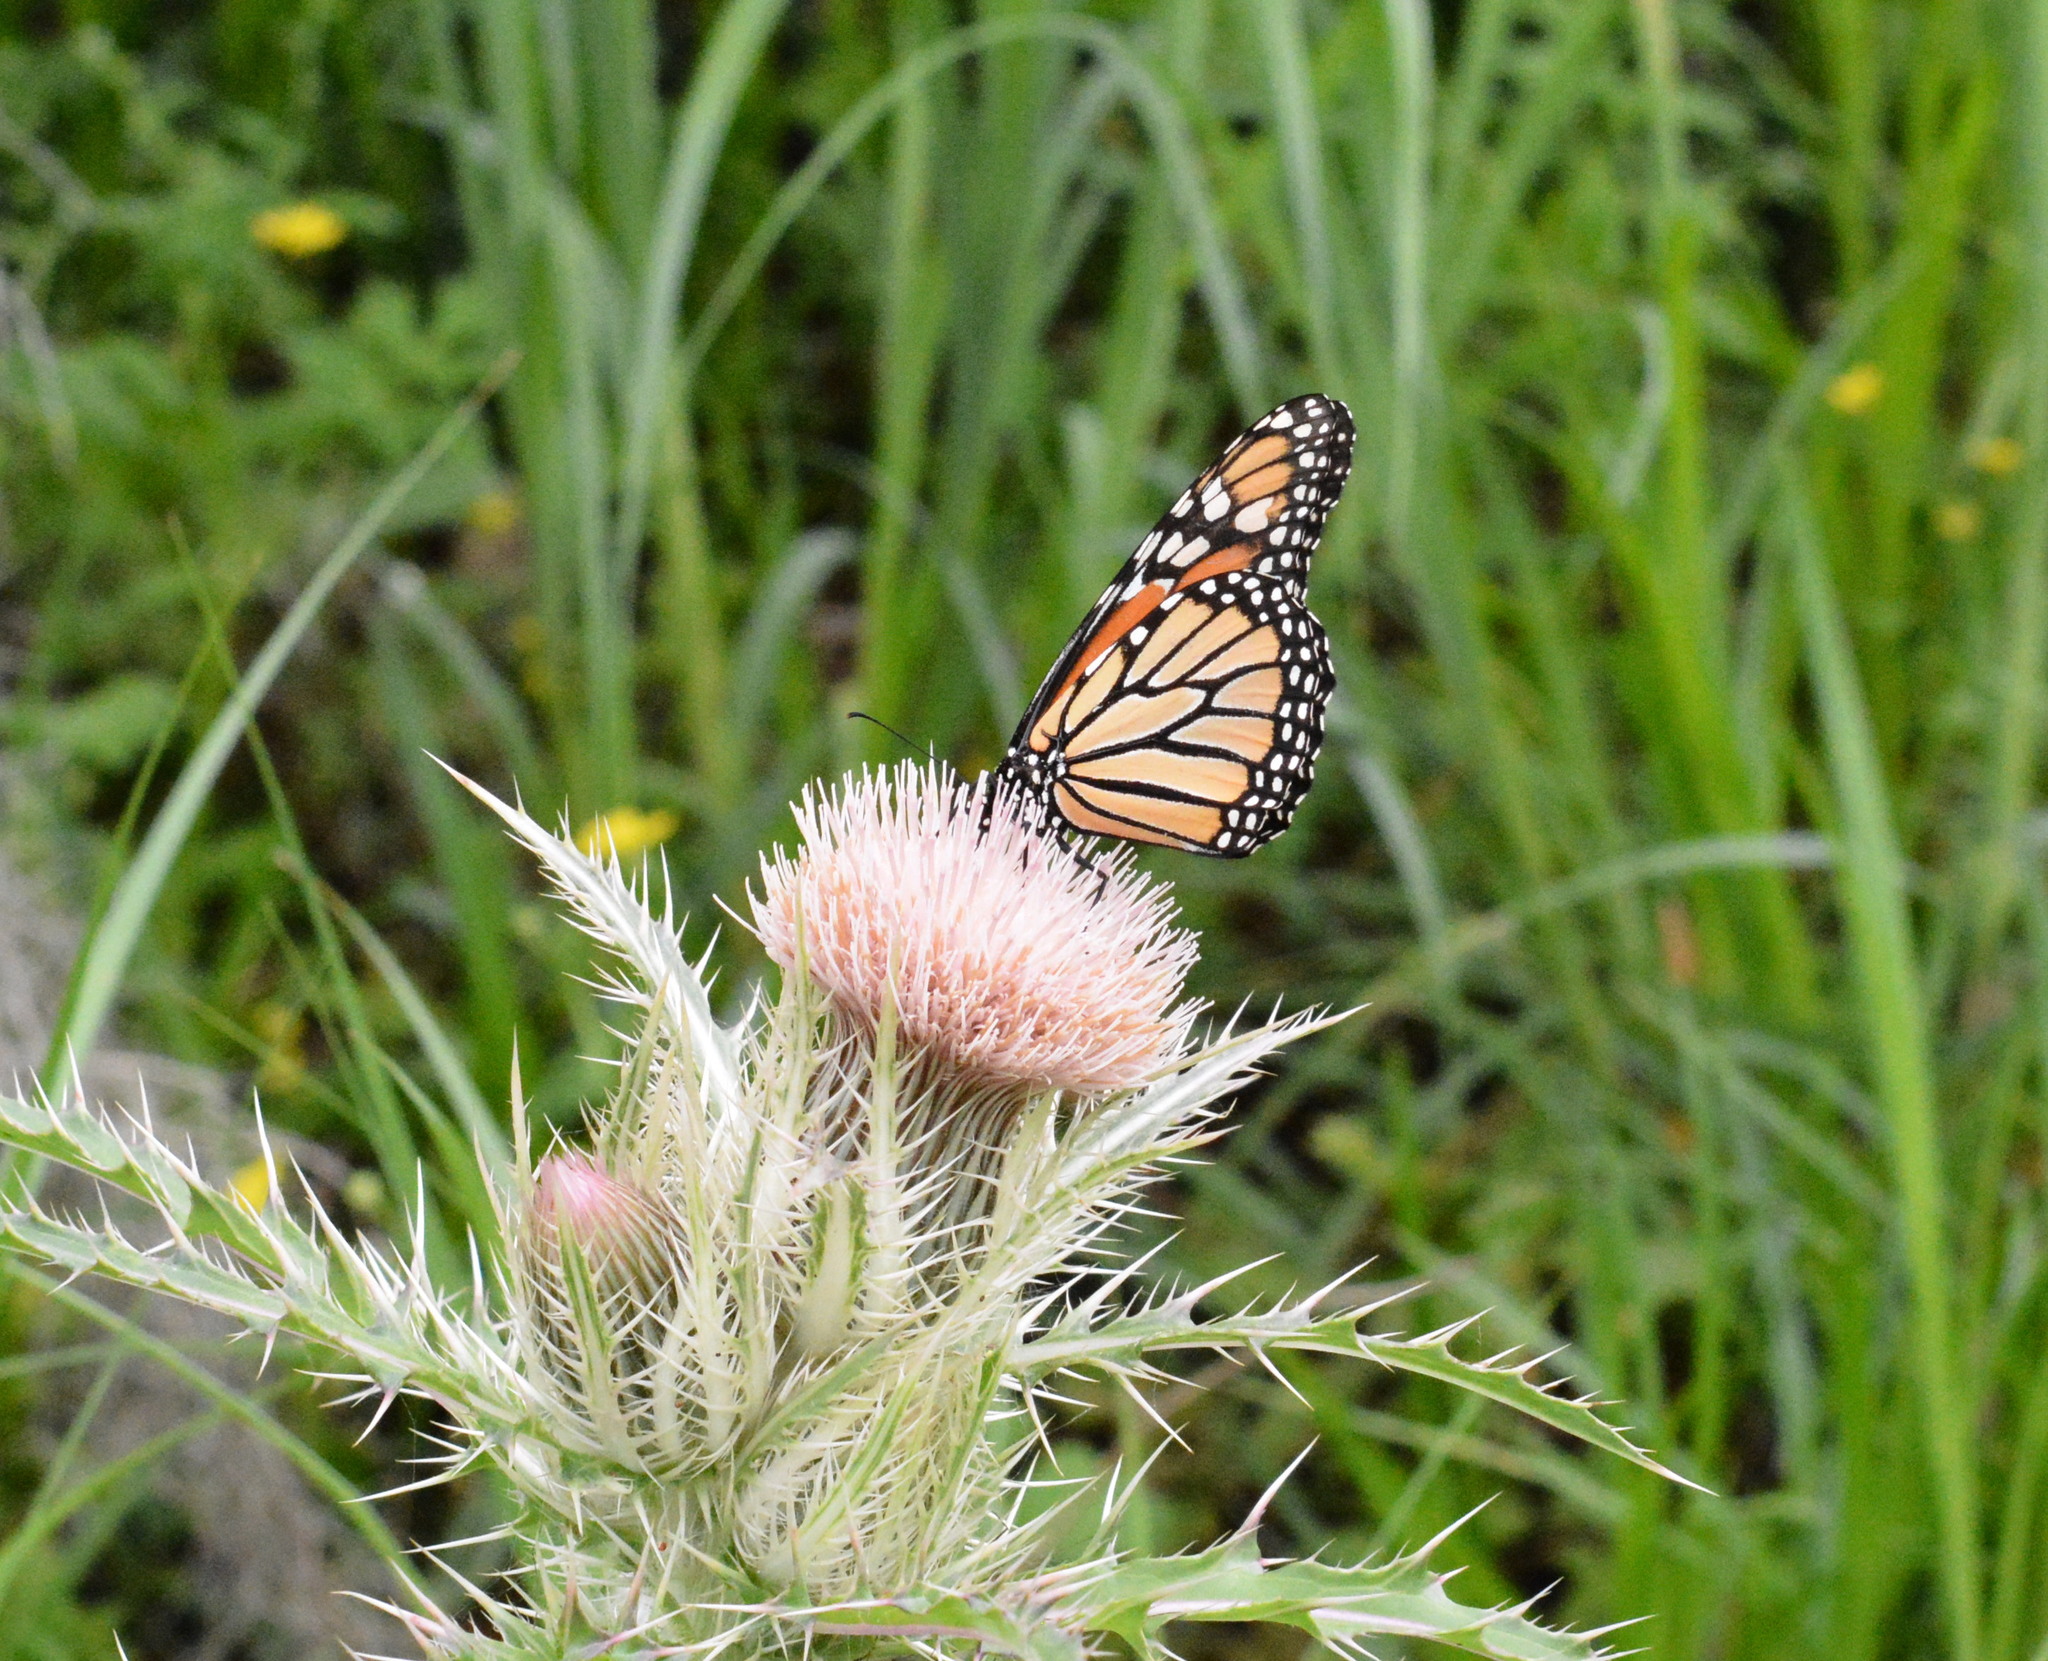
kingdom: Animalia
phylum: Arthropoda
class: Insecta
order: Lepidoptera
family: Nymphalidae
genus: Danaus
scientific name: Danaus plexippus
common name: Monarch
